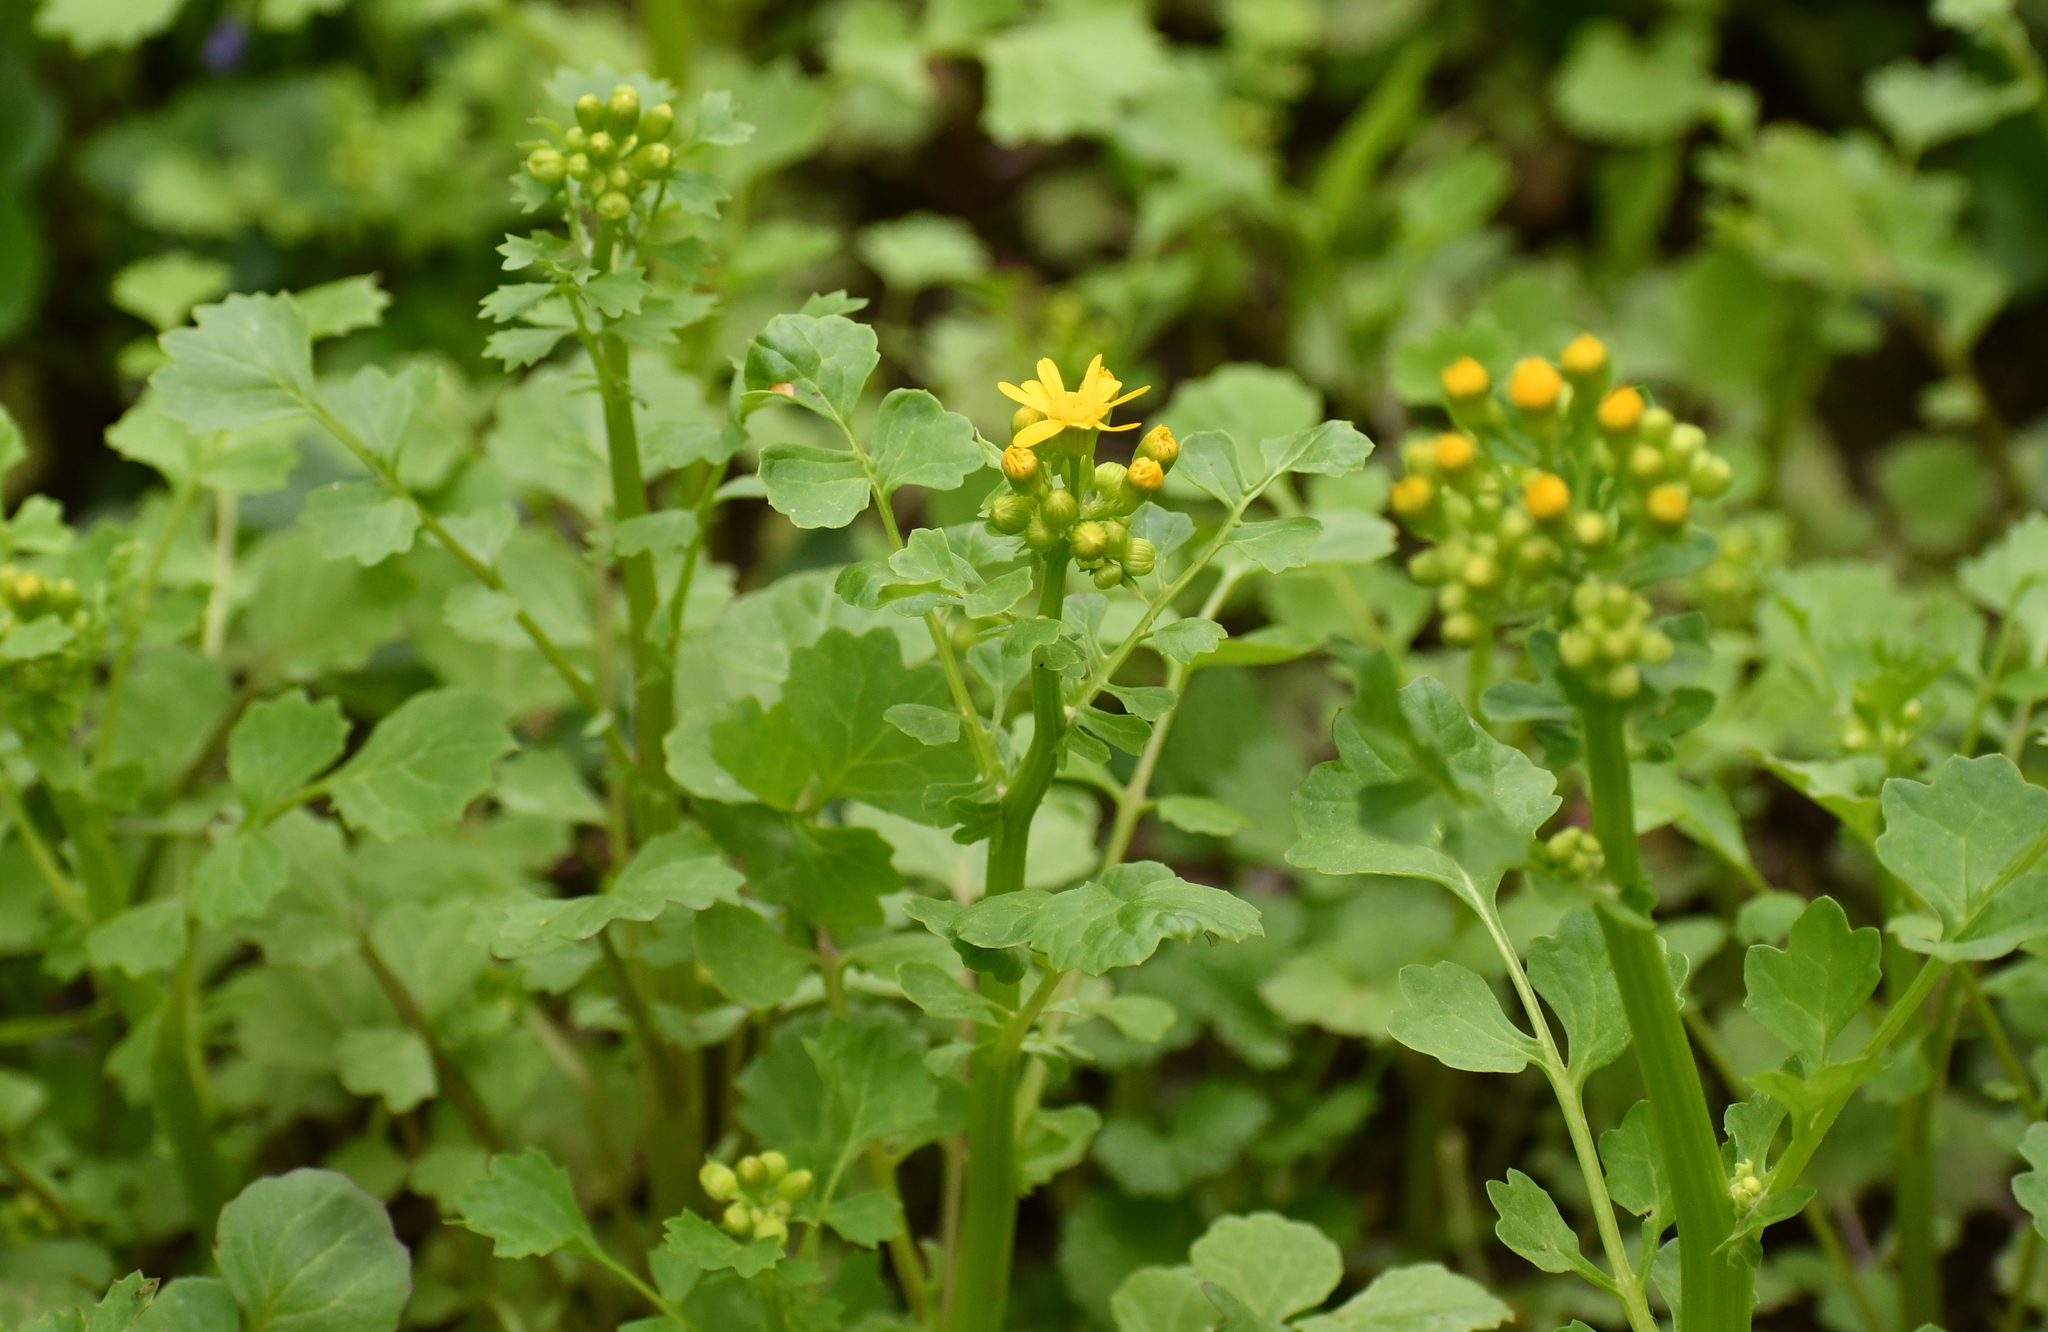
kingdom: Plantae
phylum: Tracheophyta
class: Magnoliopsida
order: Asterales
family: Asteraceae
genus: Packera
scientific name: Packera glabella
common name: Butterweed
